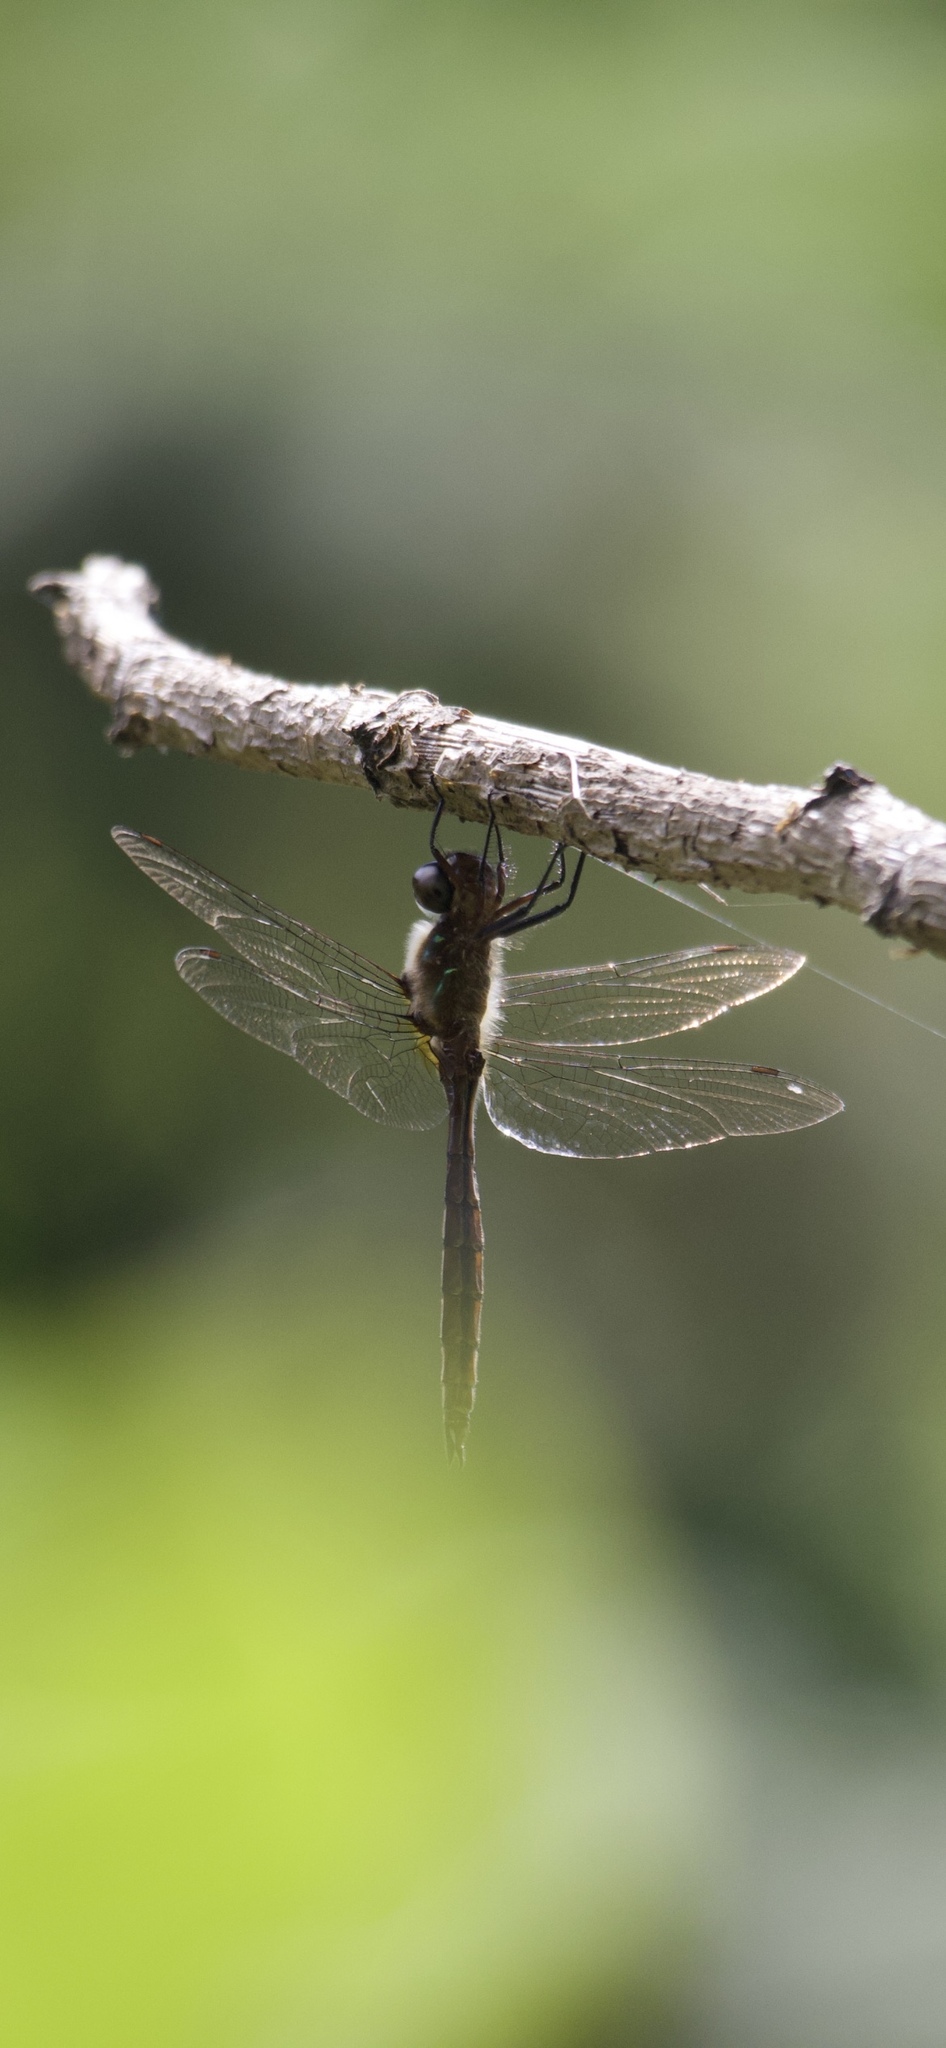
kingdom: Animalia
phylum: Arthropoda
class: Insecta
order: Odonata
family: Corduliidae
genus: Antipodochlora
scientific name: Antipodochlora braueri
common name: Dusk dragonfly
